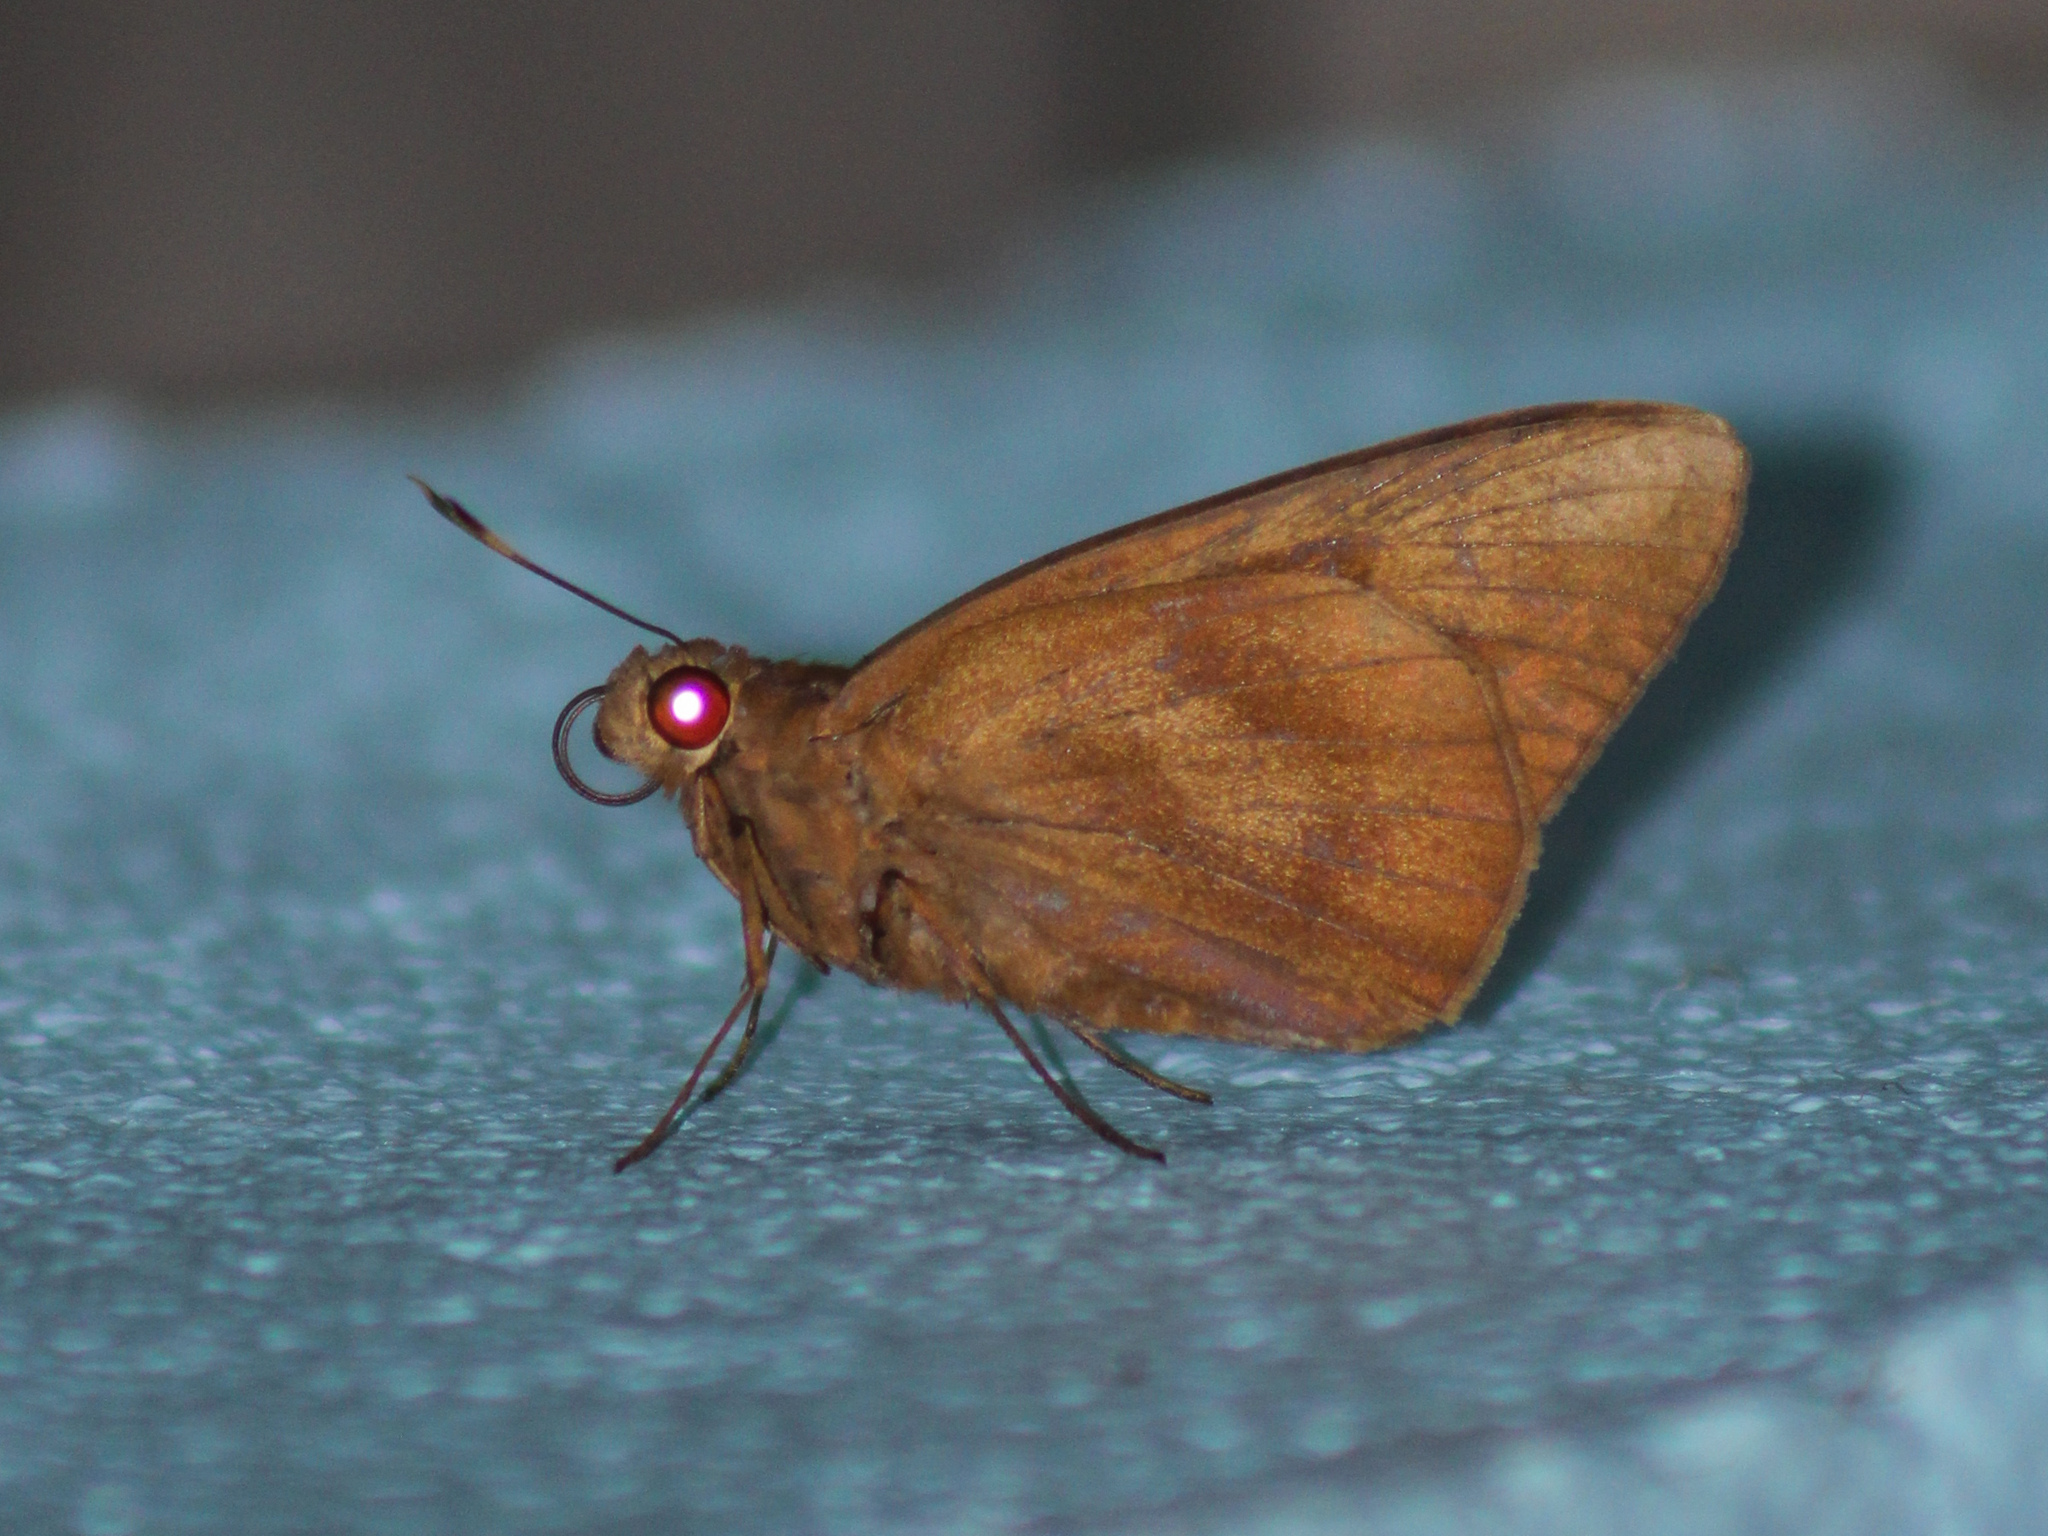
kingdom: Animalia
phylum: Arthropoda
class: Insecta
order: Lepidoptera
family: Hesperiidae
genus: Erionota
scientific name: Erionota thrax
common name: Banana skipper
